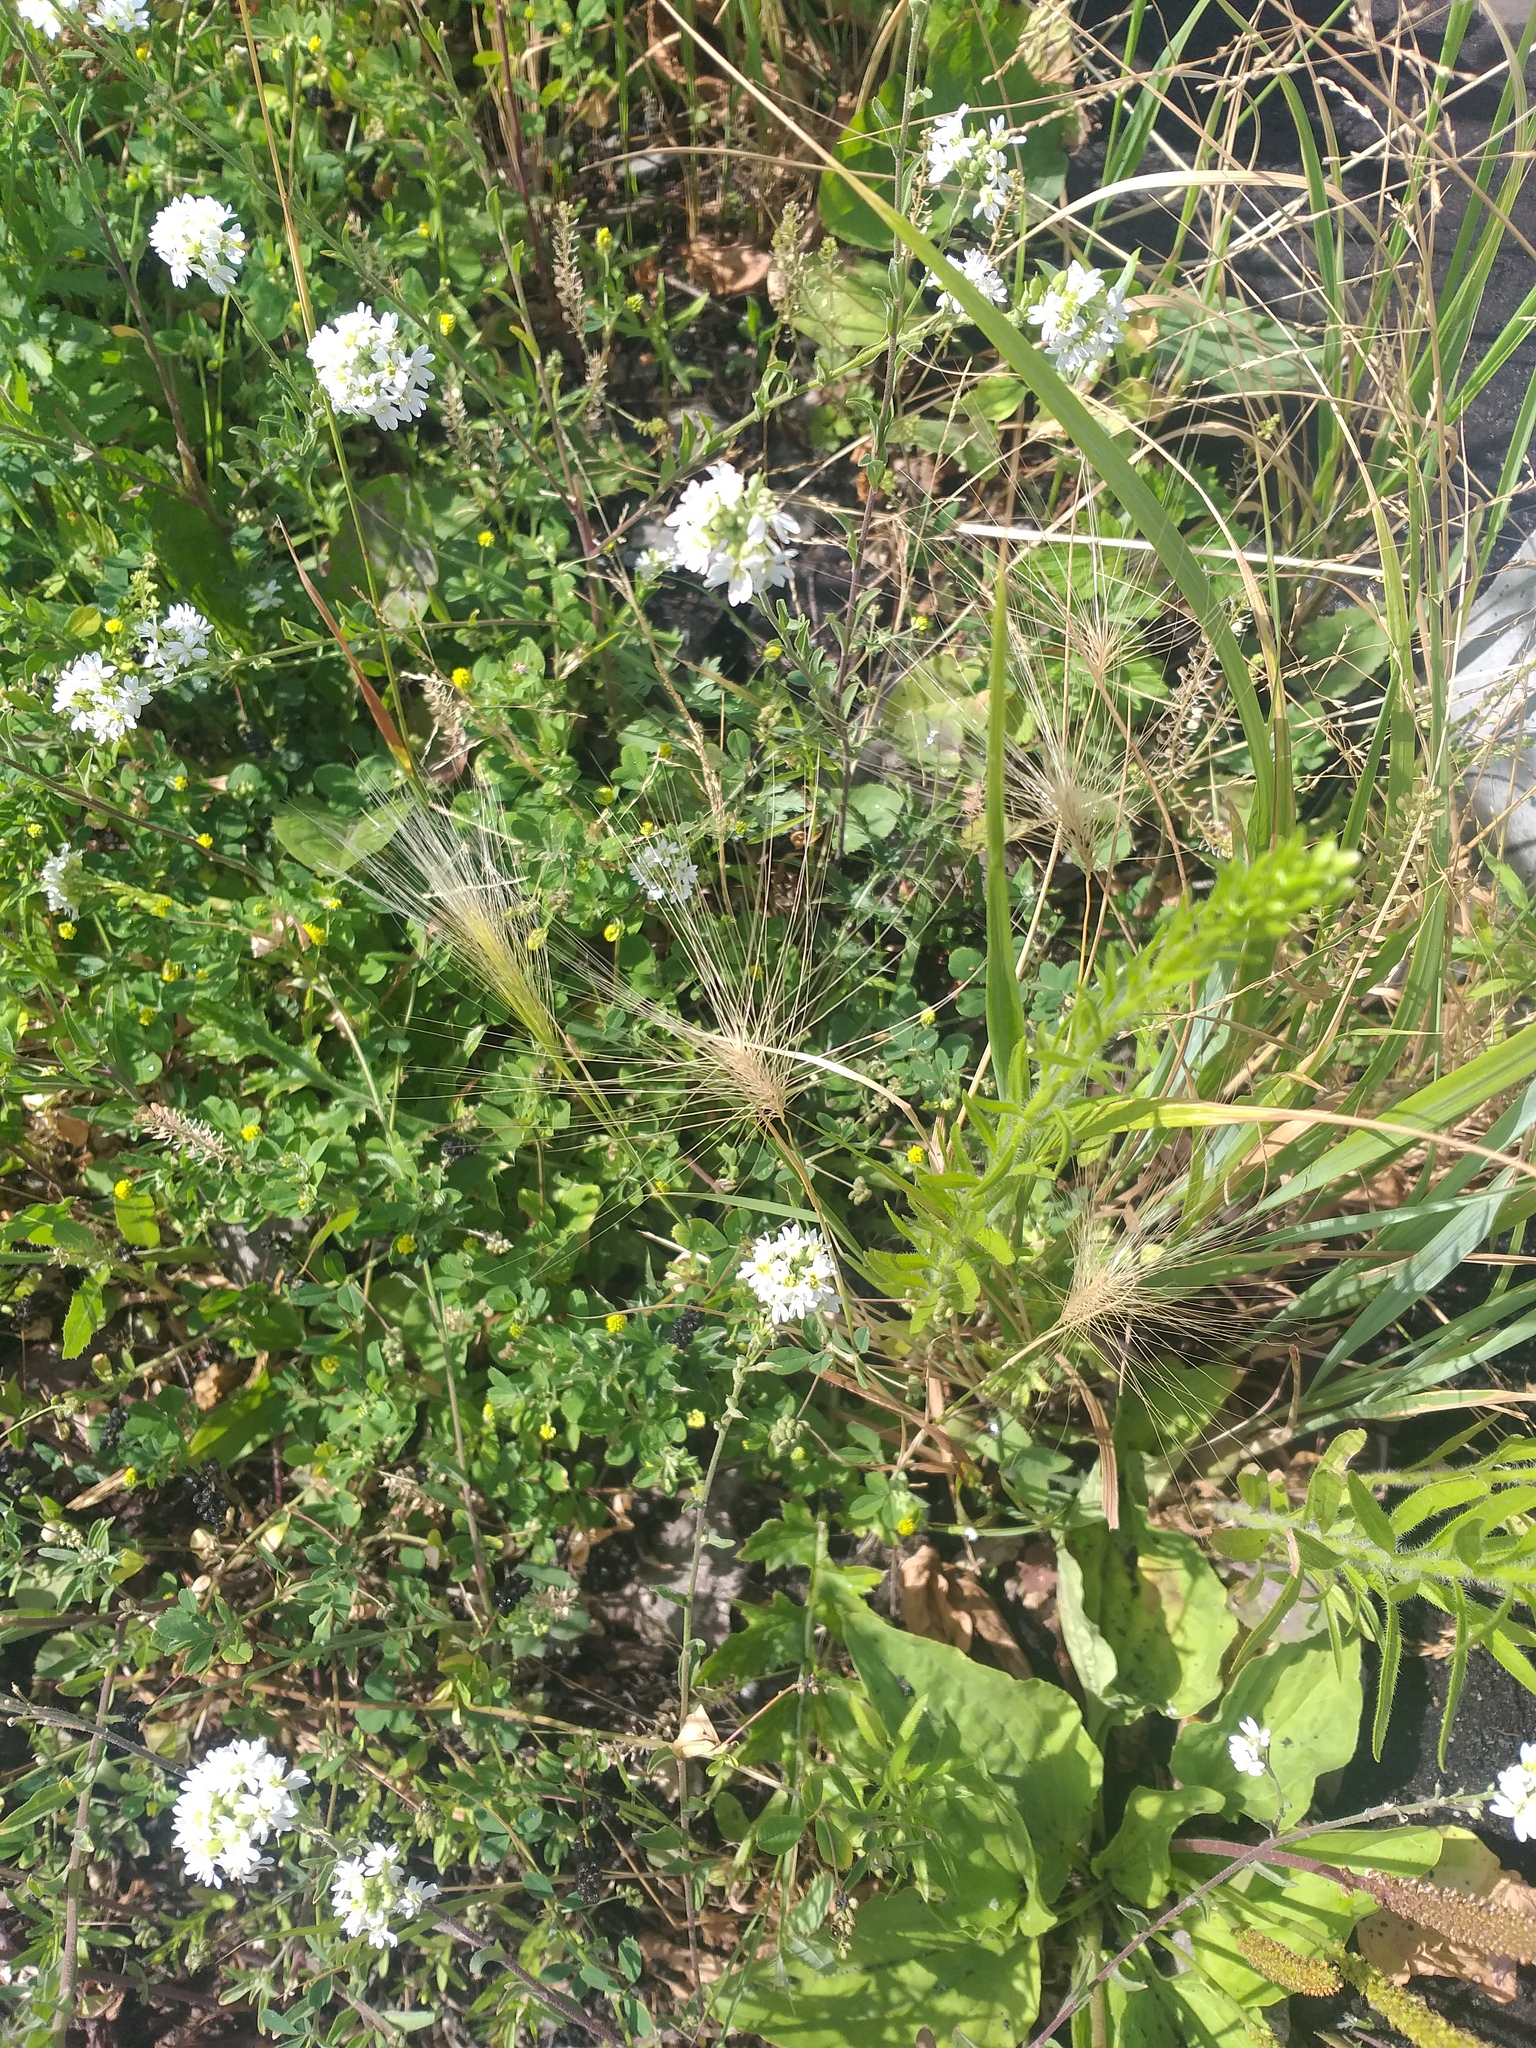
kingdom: Plantae
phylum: Tracheophyta
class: Liliopsida
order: Poales
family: Poaceae
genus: Hordeum
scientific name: Hordeum jubatum
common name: Foxtail barley
